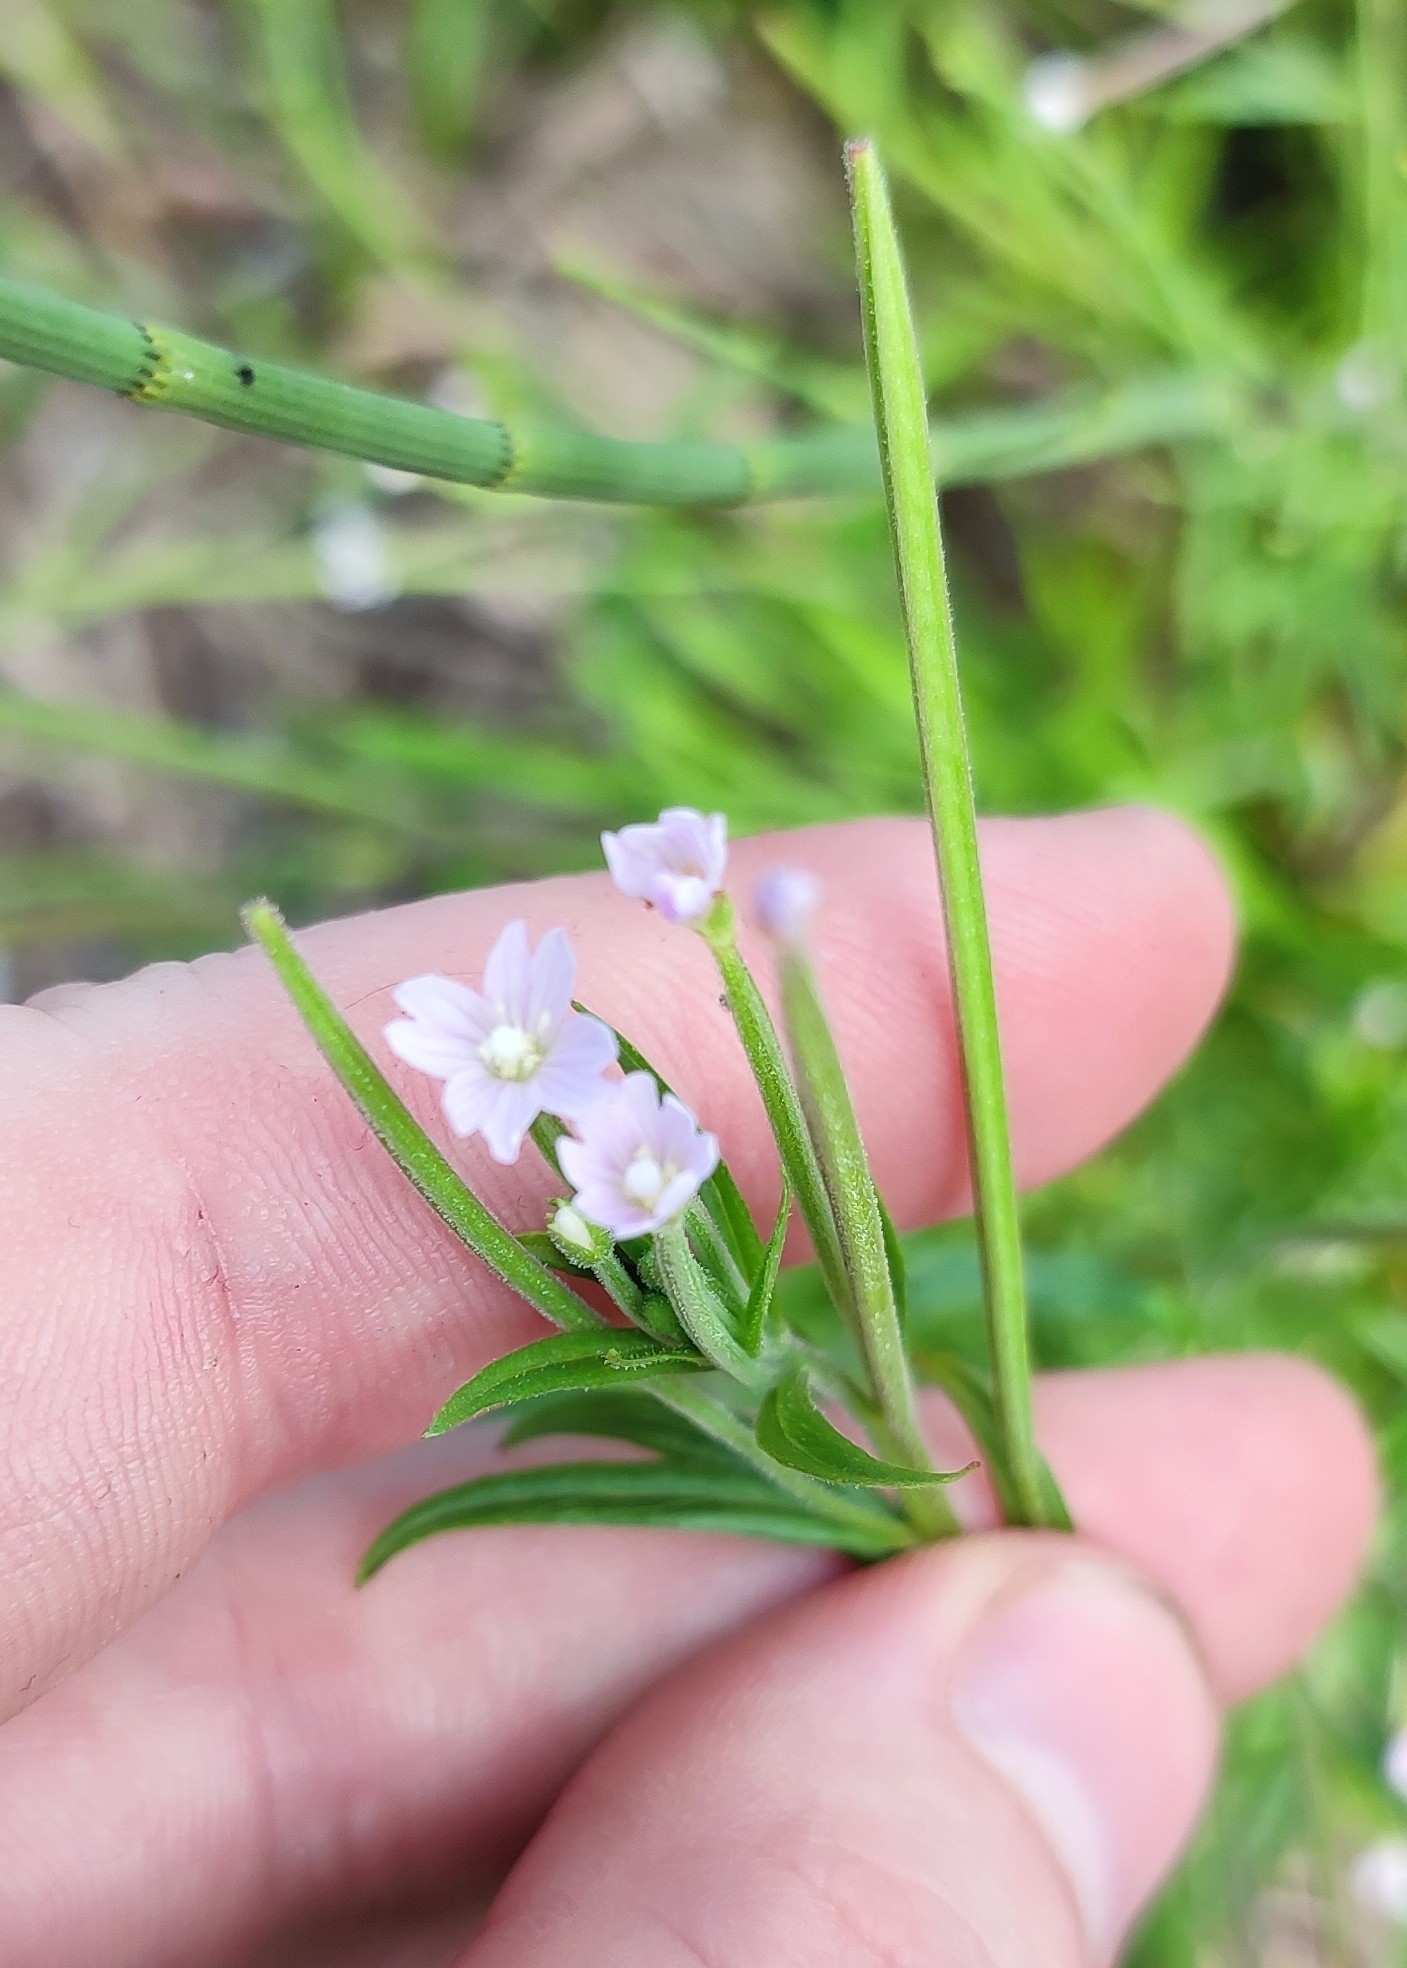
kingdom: Plantae
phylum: Tracheophyta
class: Magnoliopsida
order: Myrtales
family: Onagraceae
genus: Epilobium
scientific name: Epilobium palustre
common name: Marsh willowherb
